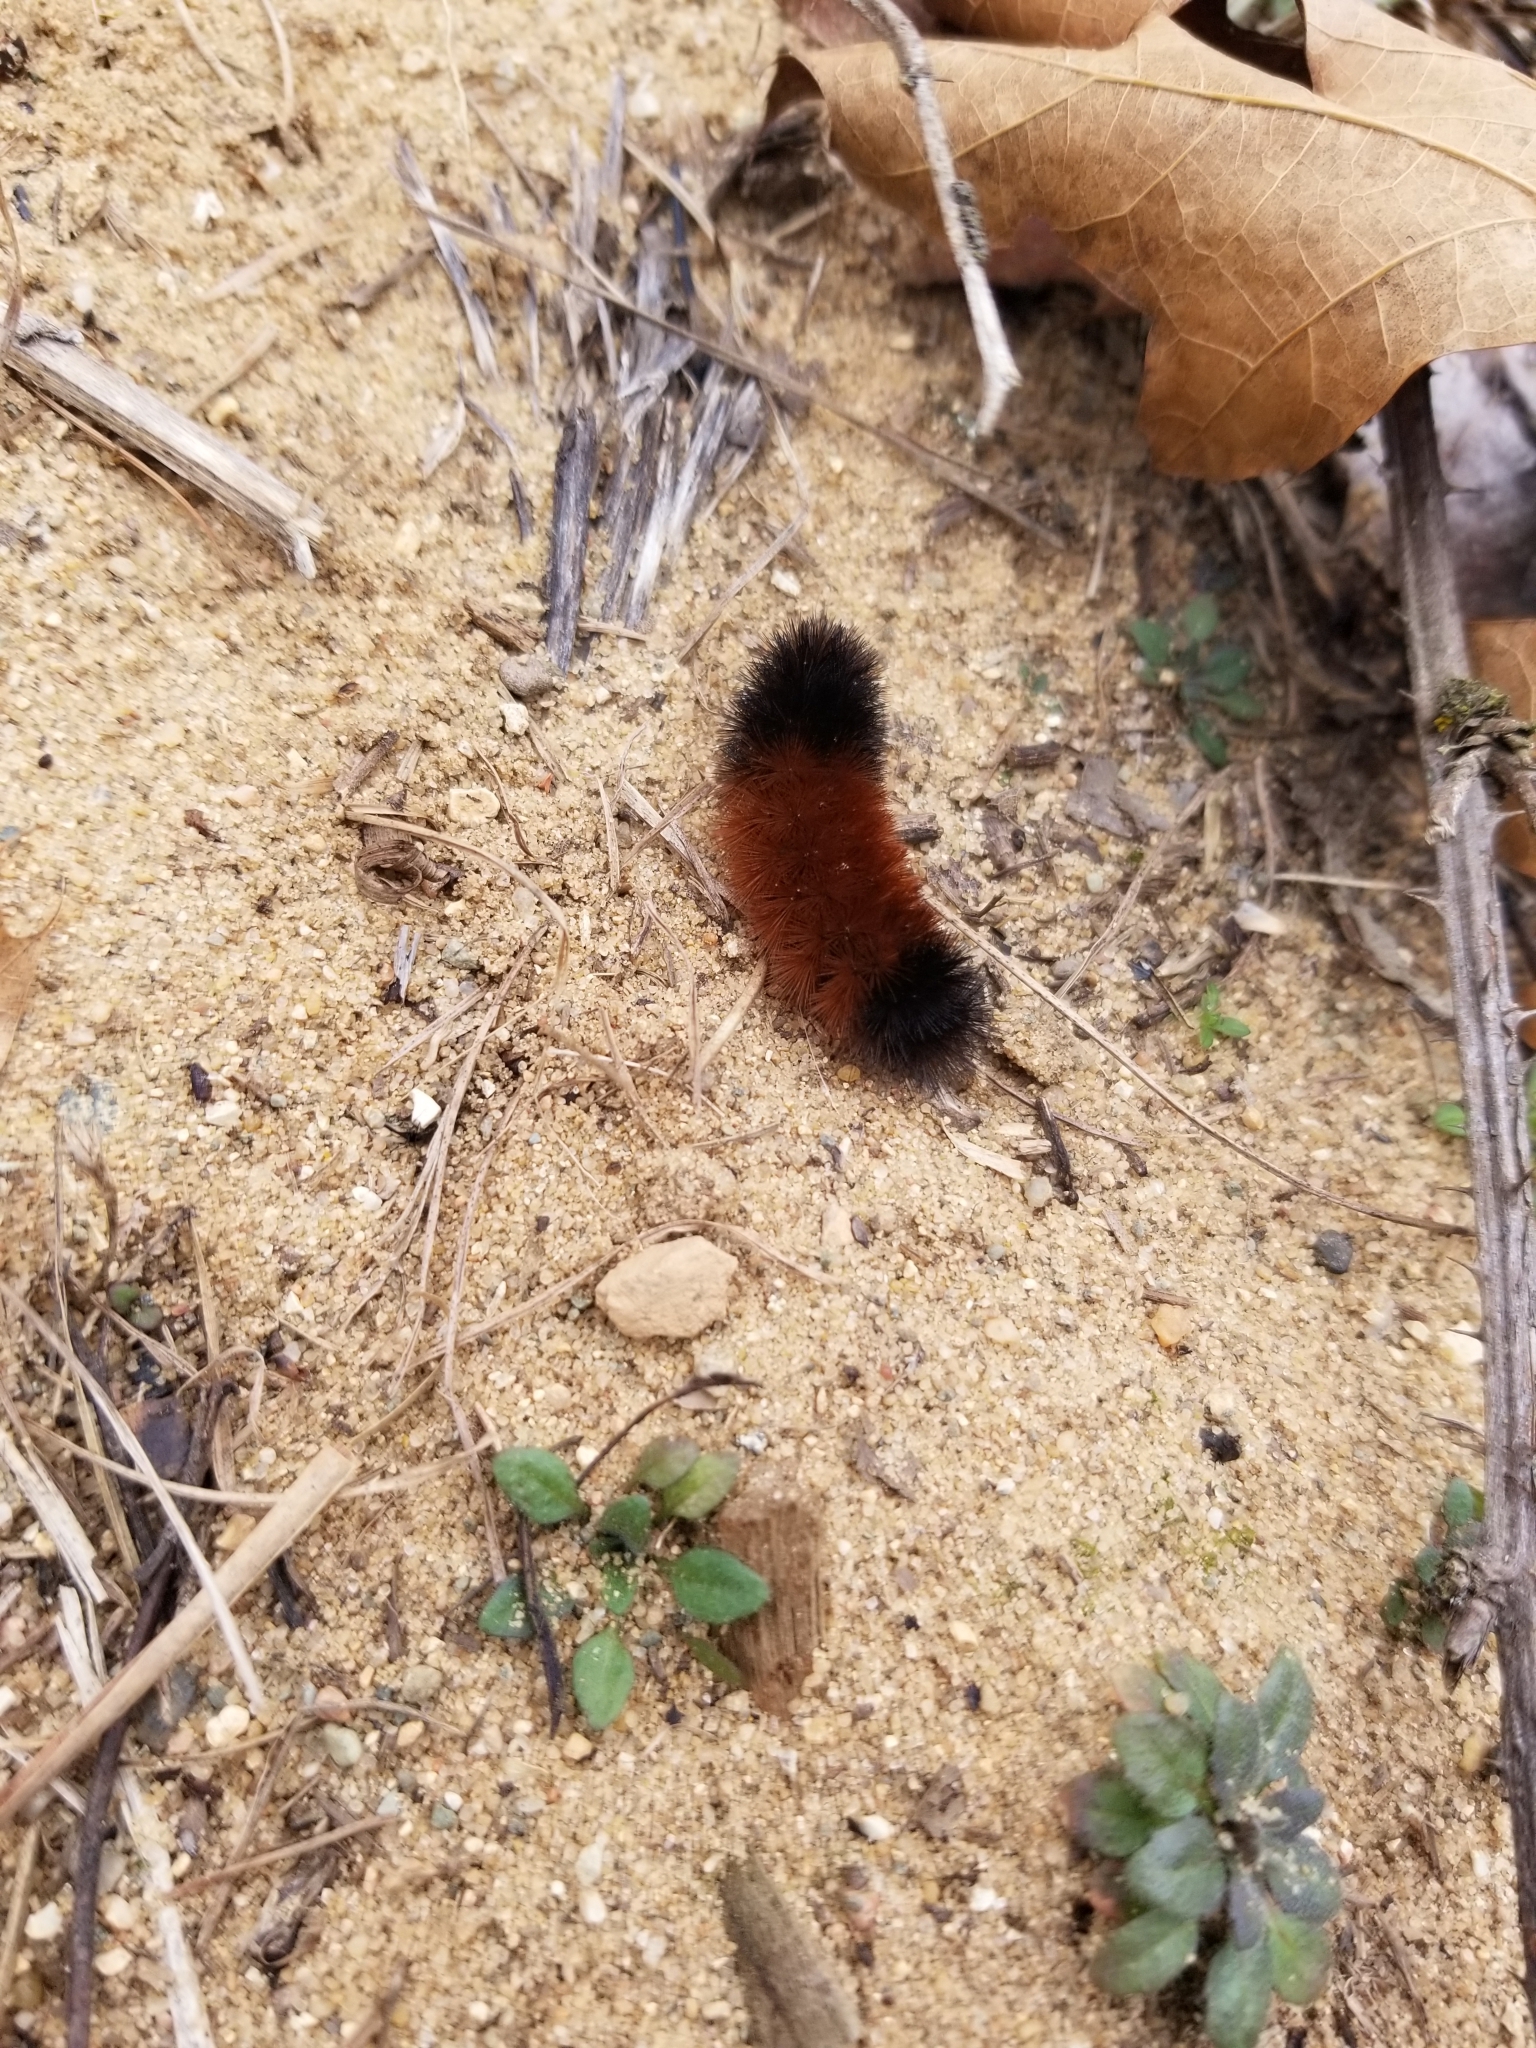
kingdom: Animalia
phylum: Arthropoda
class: Insecta
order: Lepidoptera
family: Erebidae
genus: Pyrrharctia
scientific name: Pyrrharctia isabella
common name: Isabella tiger moth
